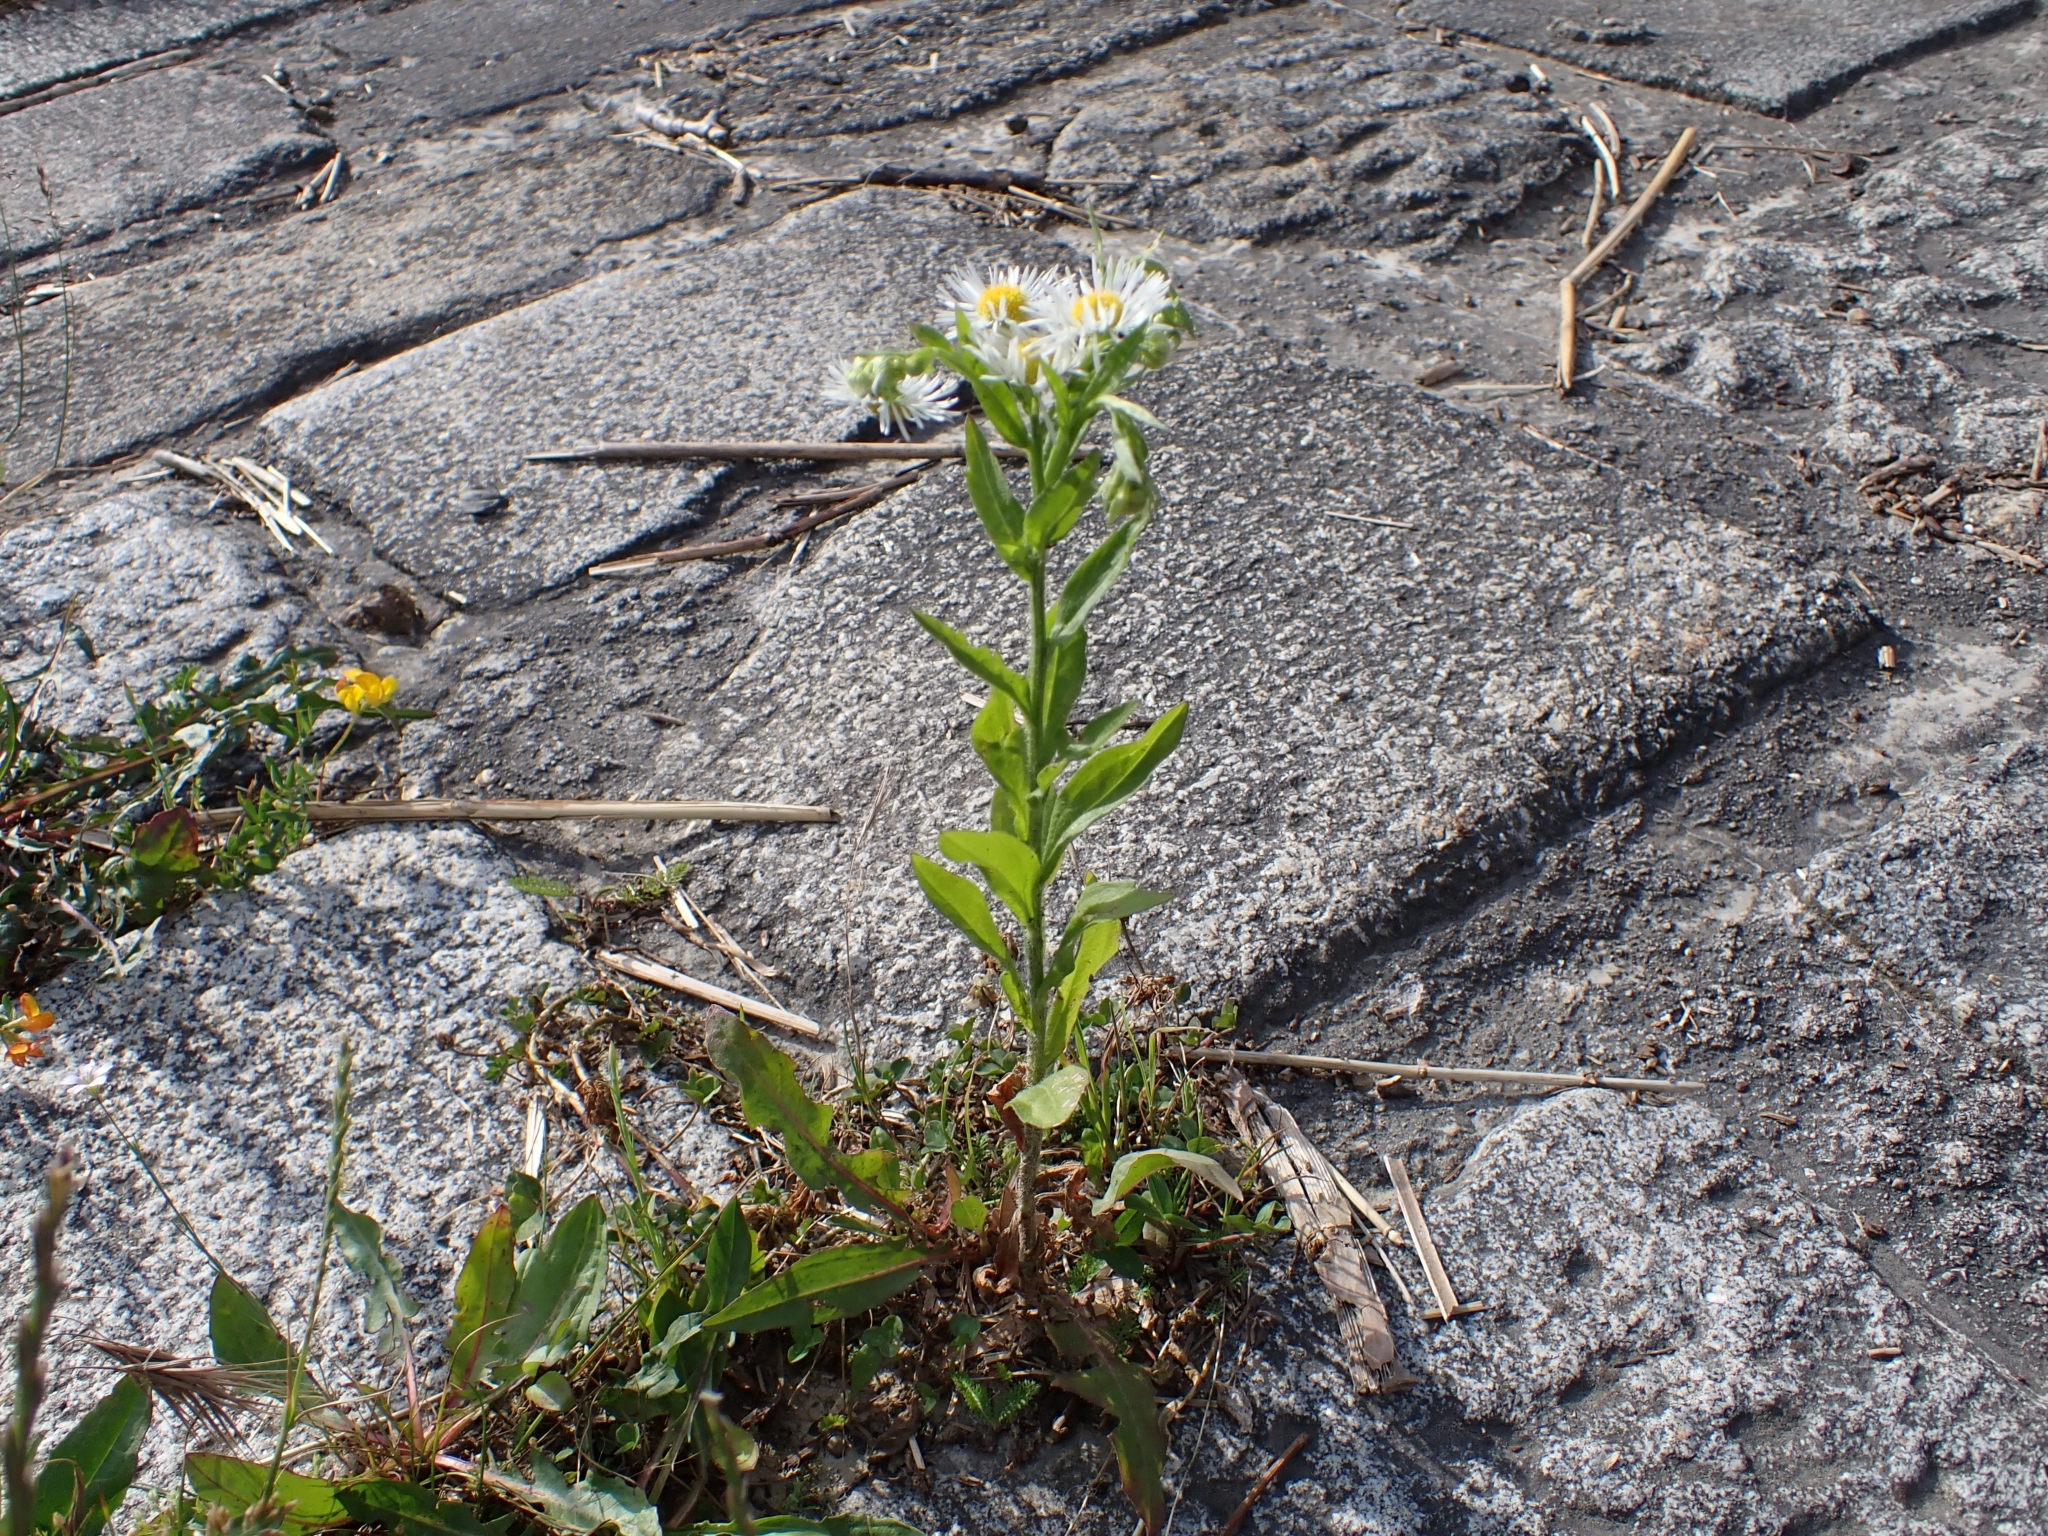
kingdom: Plantae
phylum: Tracheophyta
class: Magnoliopsida
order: Asterales
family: Asteraceae
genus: Erigeron
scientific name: Erigeron annuus
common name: Tall fleabane
